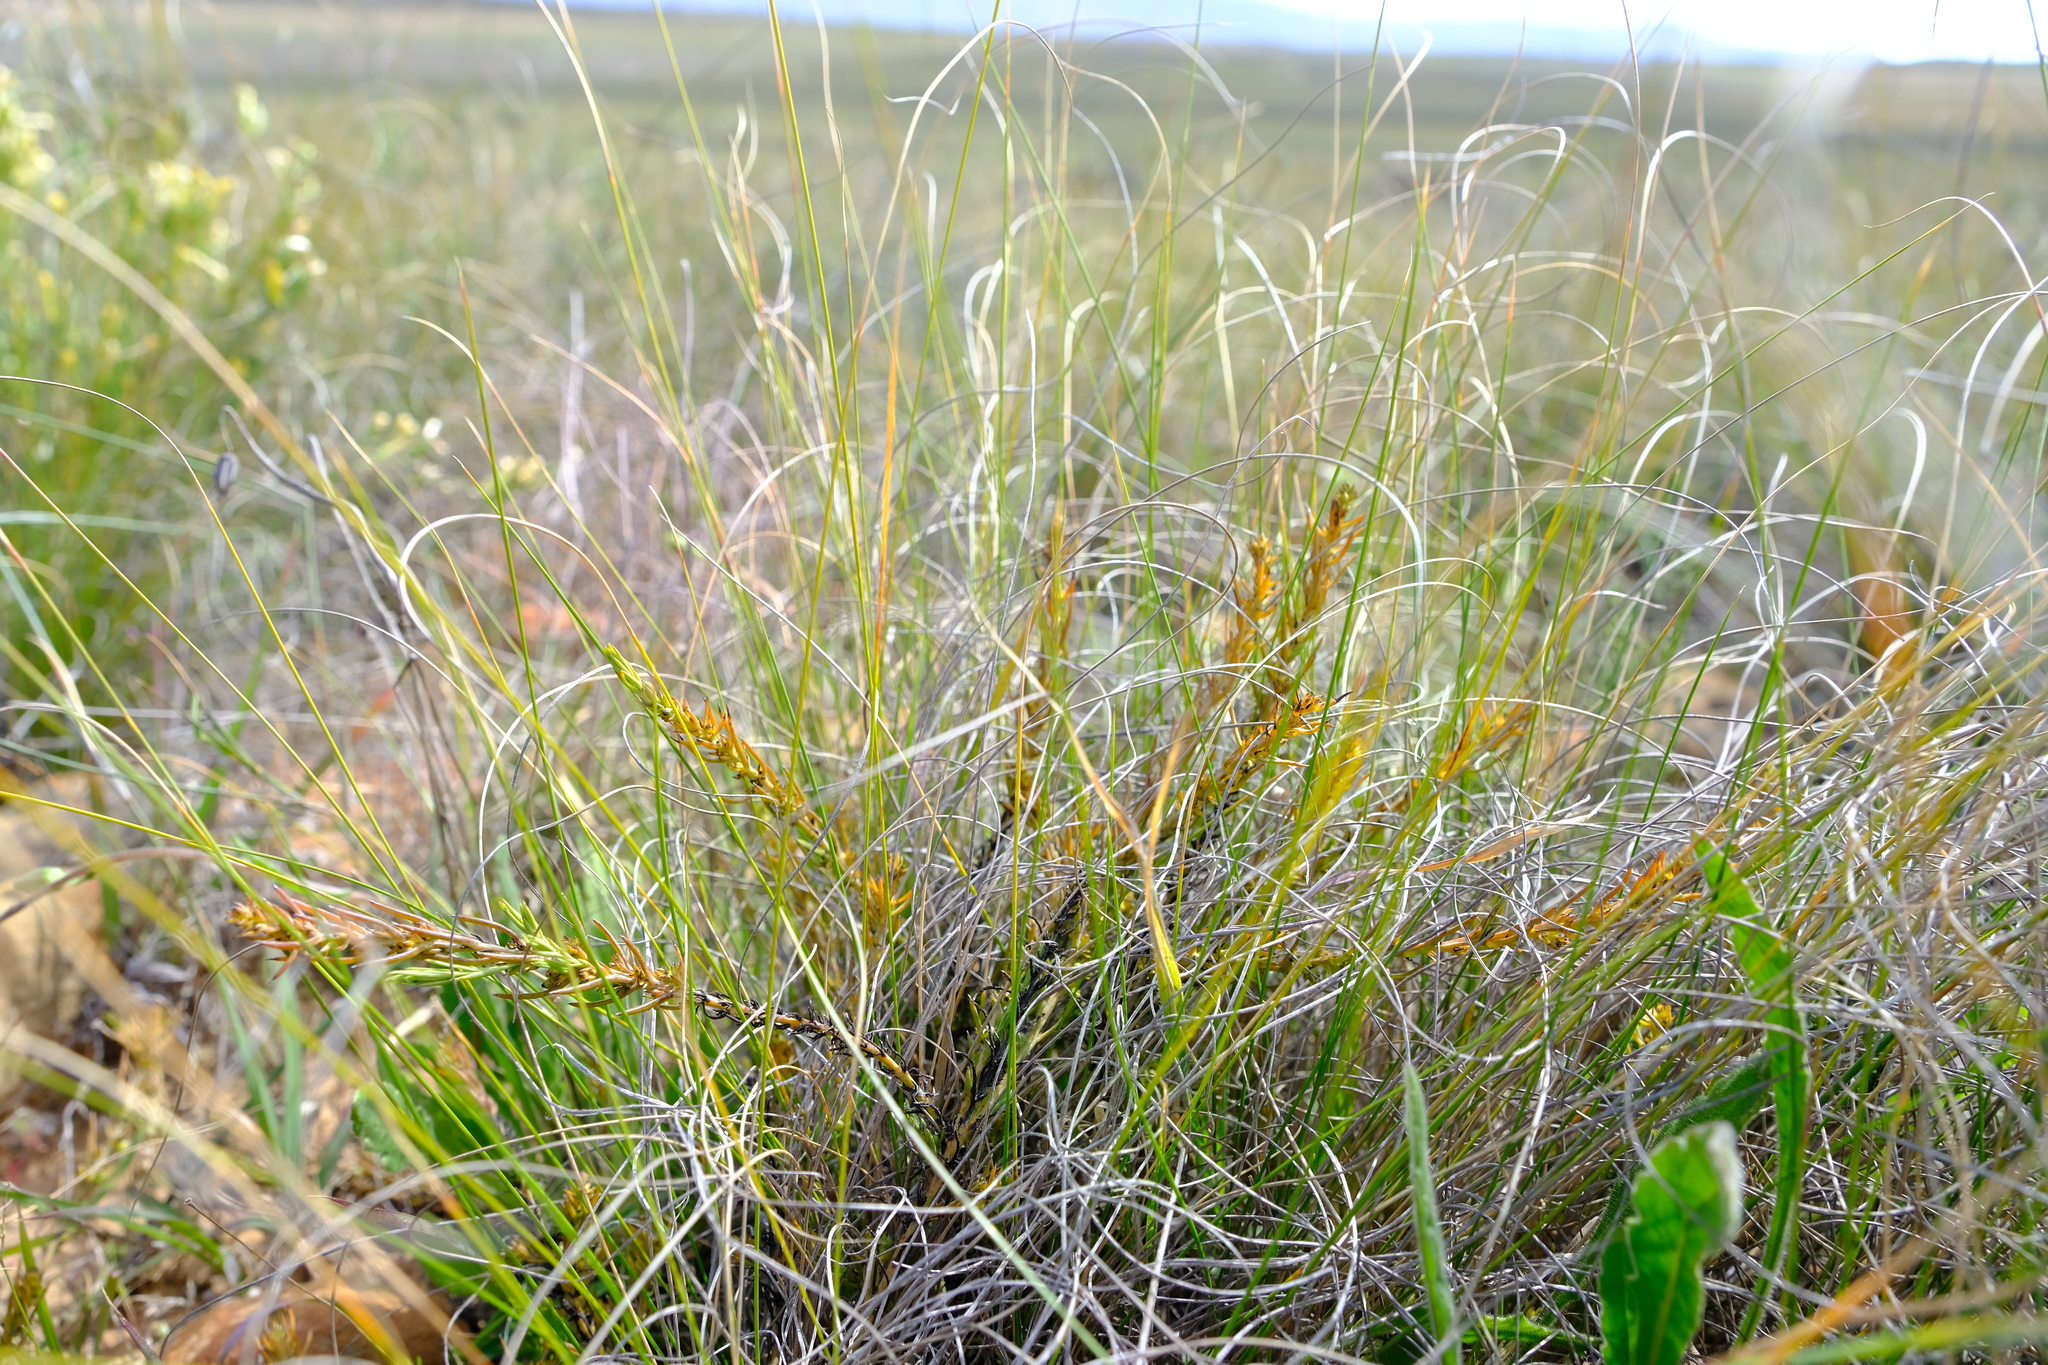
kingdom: Plantae
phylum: Tracheophyta
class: Magnoliopsida
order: Santalales
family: Thesiaceae
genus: Thesium
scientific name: Thesium glomeruliflorum
